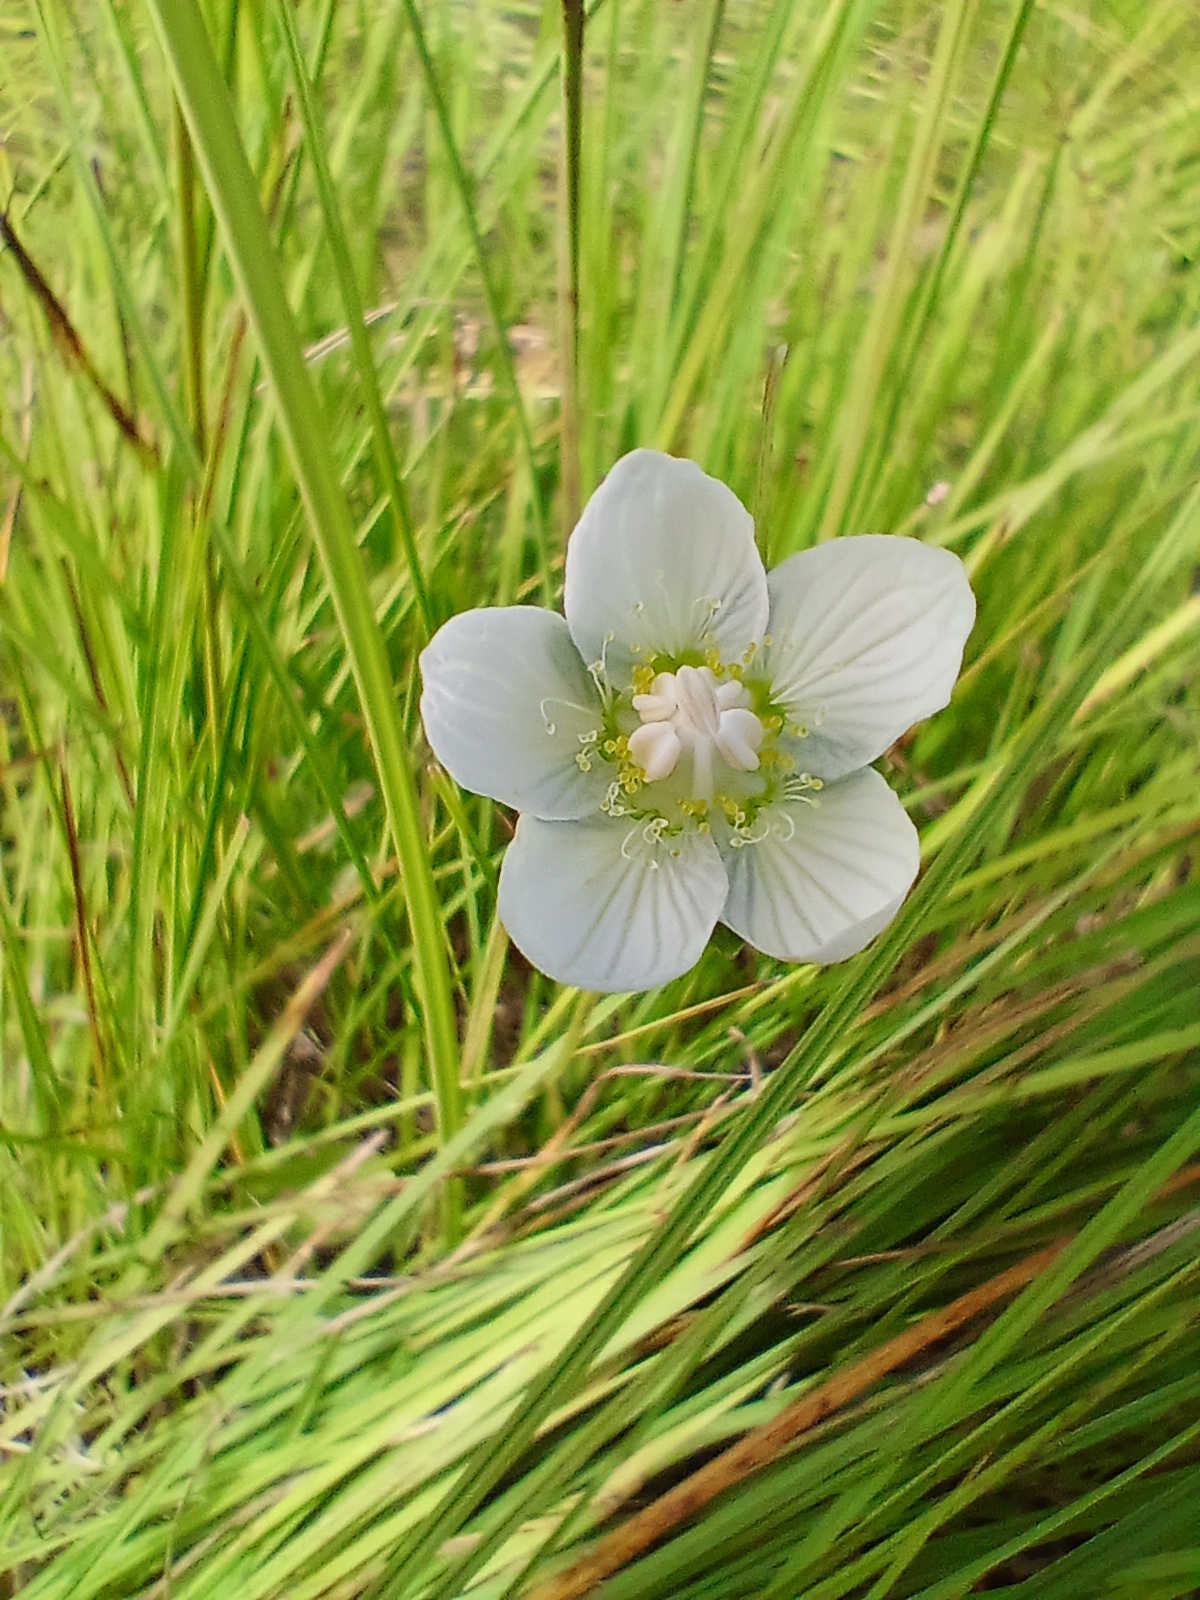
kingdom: Plantae
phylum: Tracheophyta
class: Magnoliopsida
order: Celastrales
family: Parnassiaceae
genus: Parnassia
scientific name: Parnassia palustris
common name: Grass-of-parnassus
